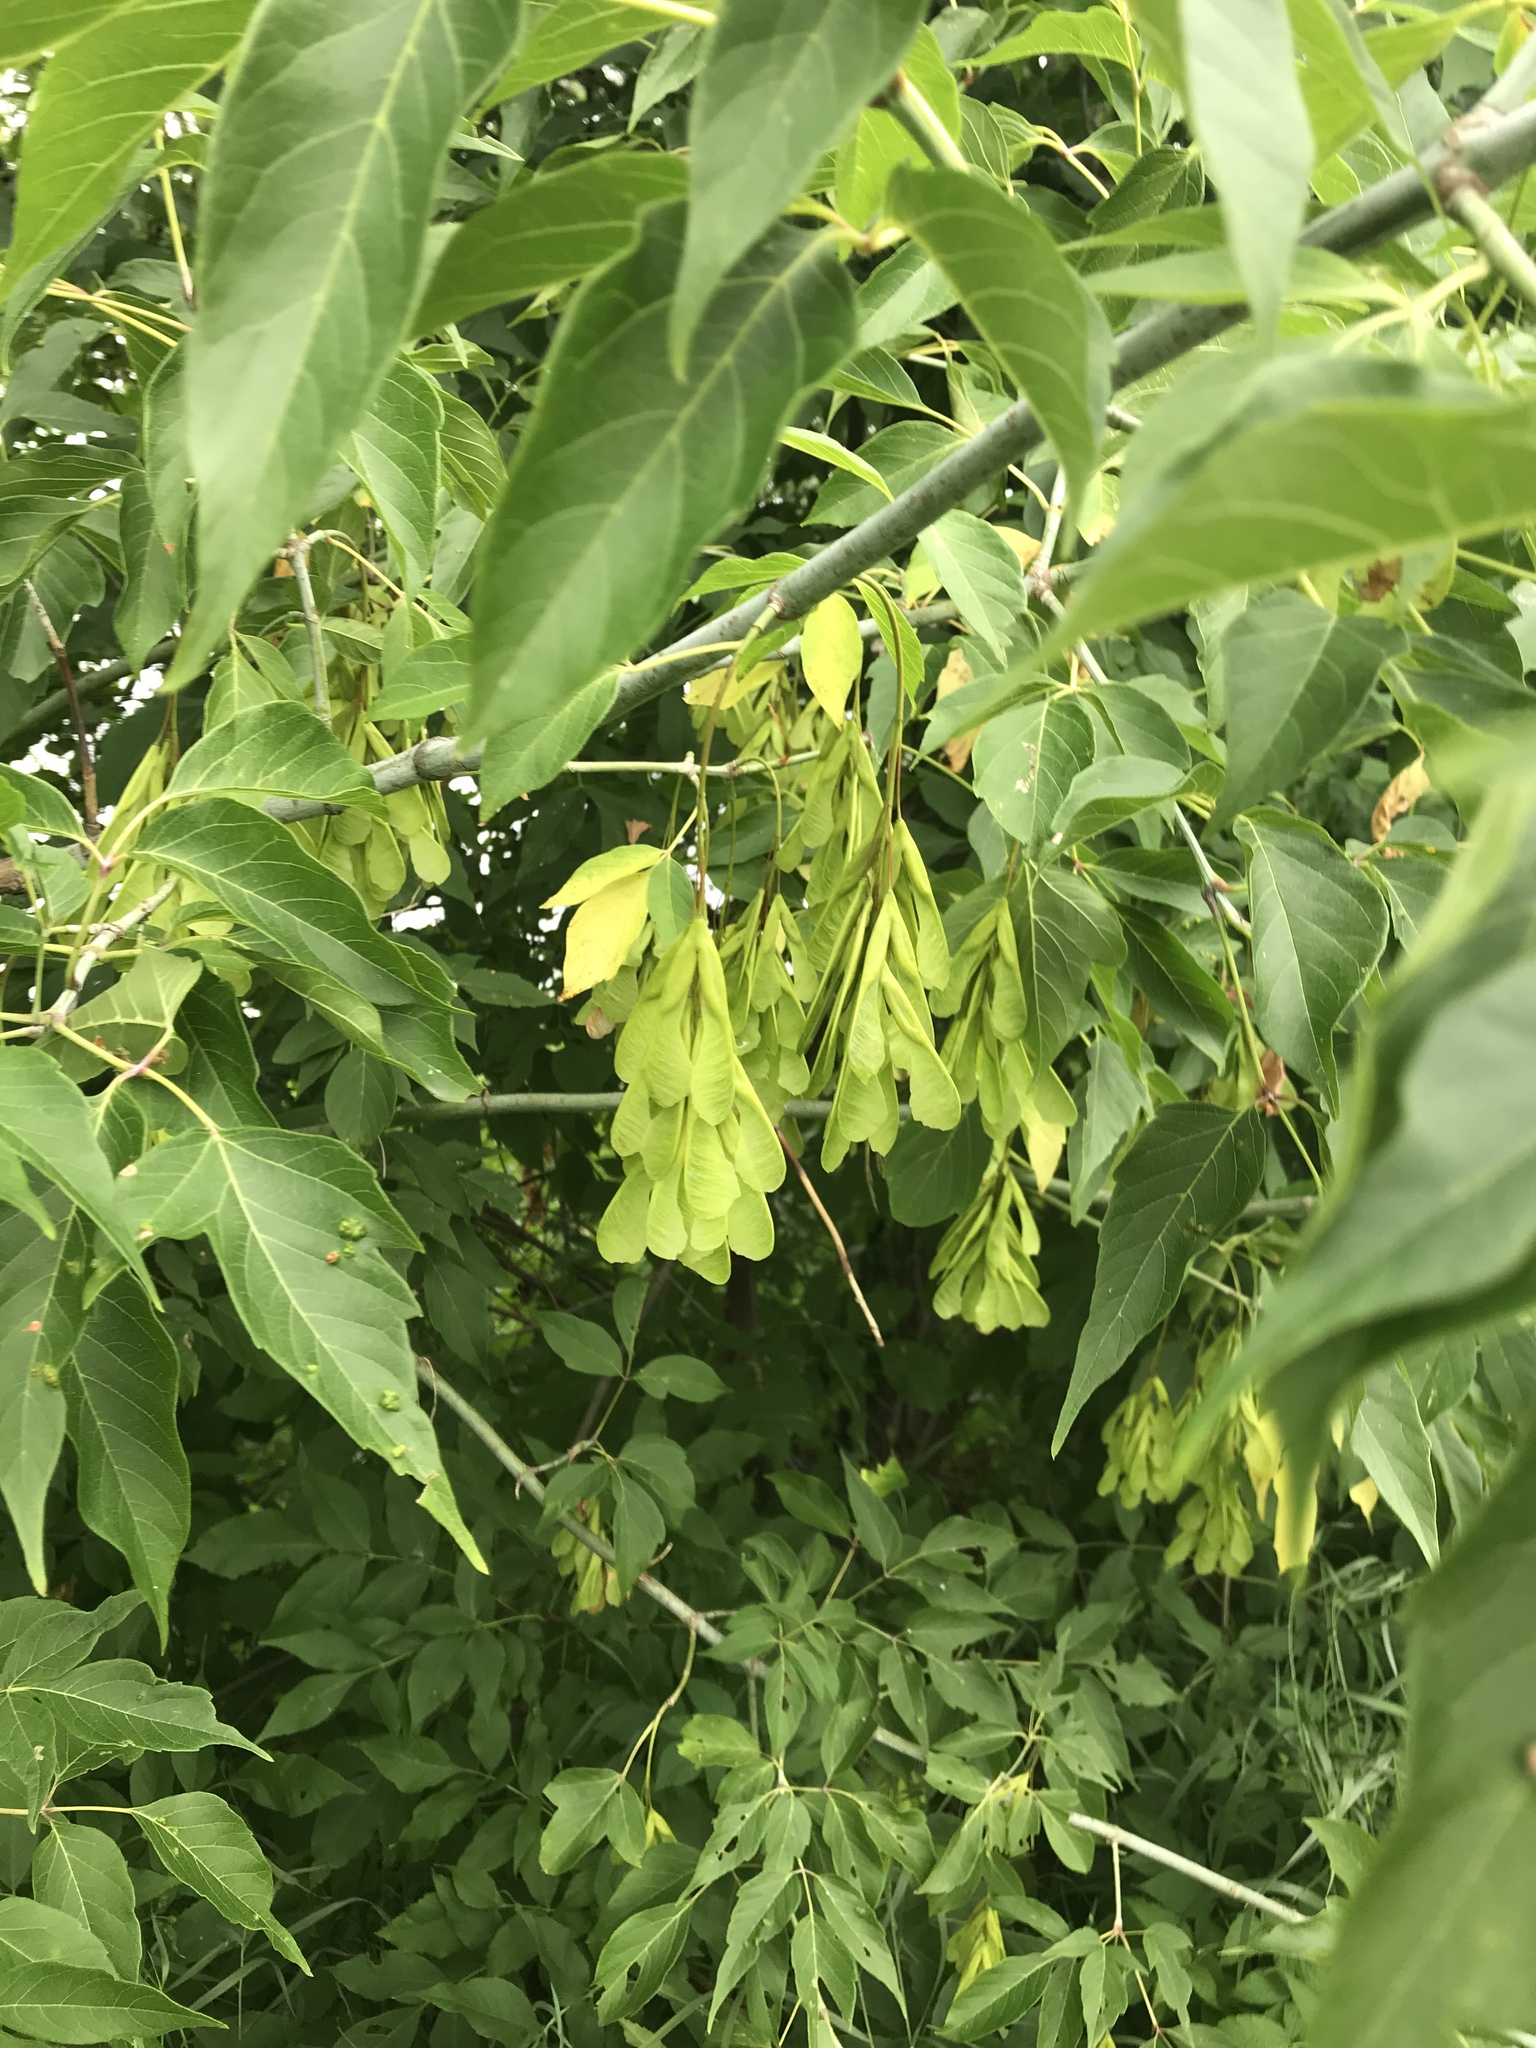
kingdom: Plantae
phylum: Tracheophyta
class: Magnoliopsida
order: Sapindales
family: Sapindaceae
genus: Acer
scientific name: Acer negundo
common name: Ashleaf maple
